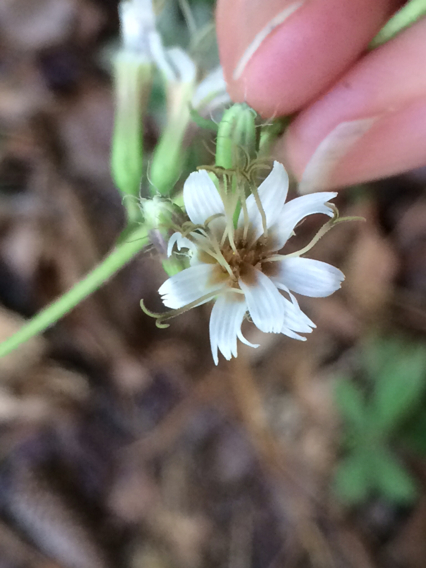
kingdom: Plantae
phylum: Tracheophyta
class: Magnoliopsida
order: Asterales
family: Asteraceae
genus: Nabalus
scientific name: Nabalus barbata
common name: Barbed rattlesnakeroot
